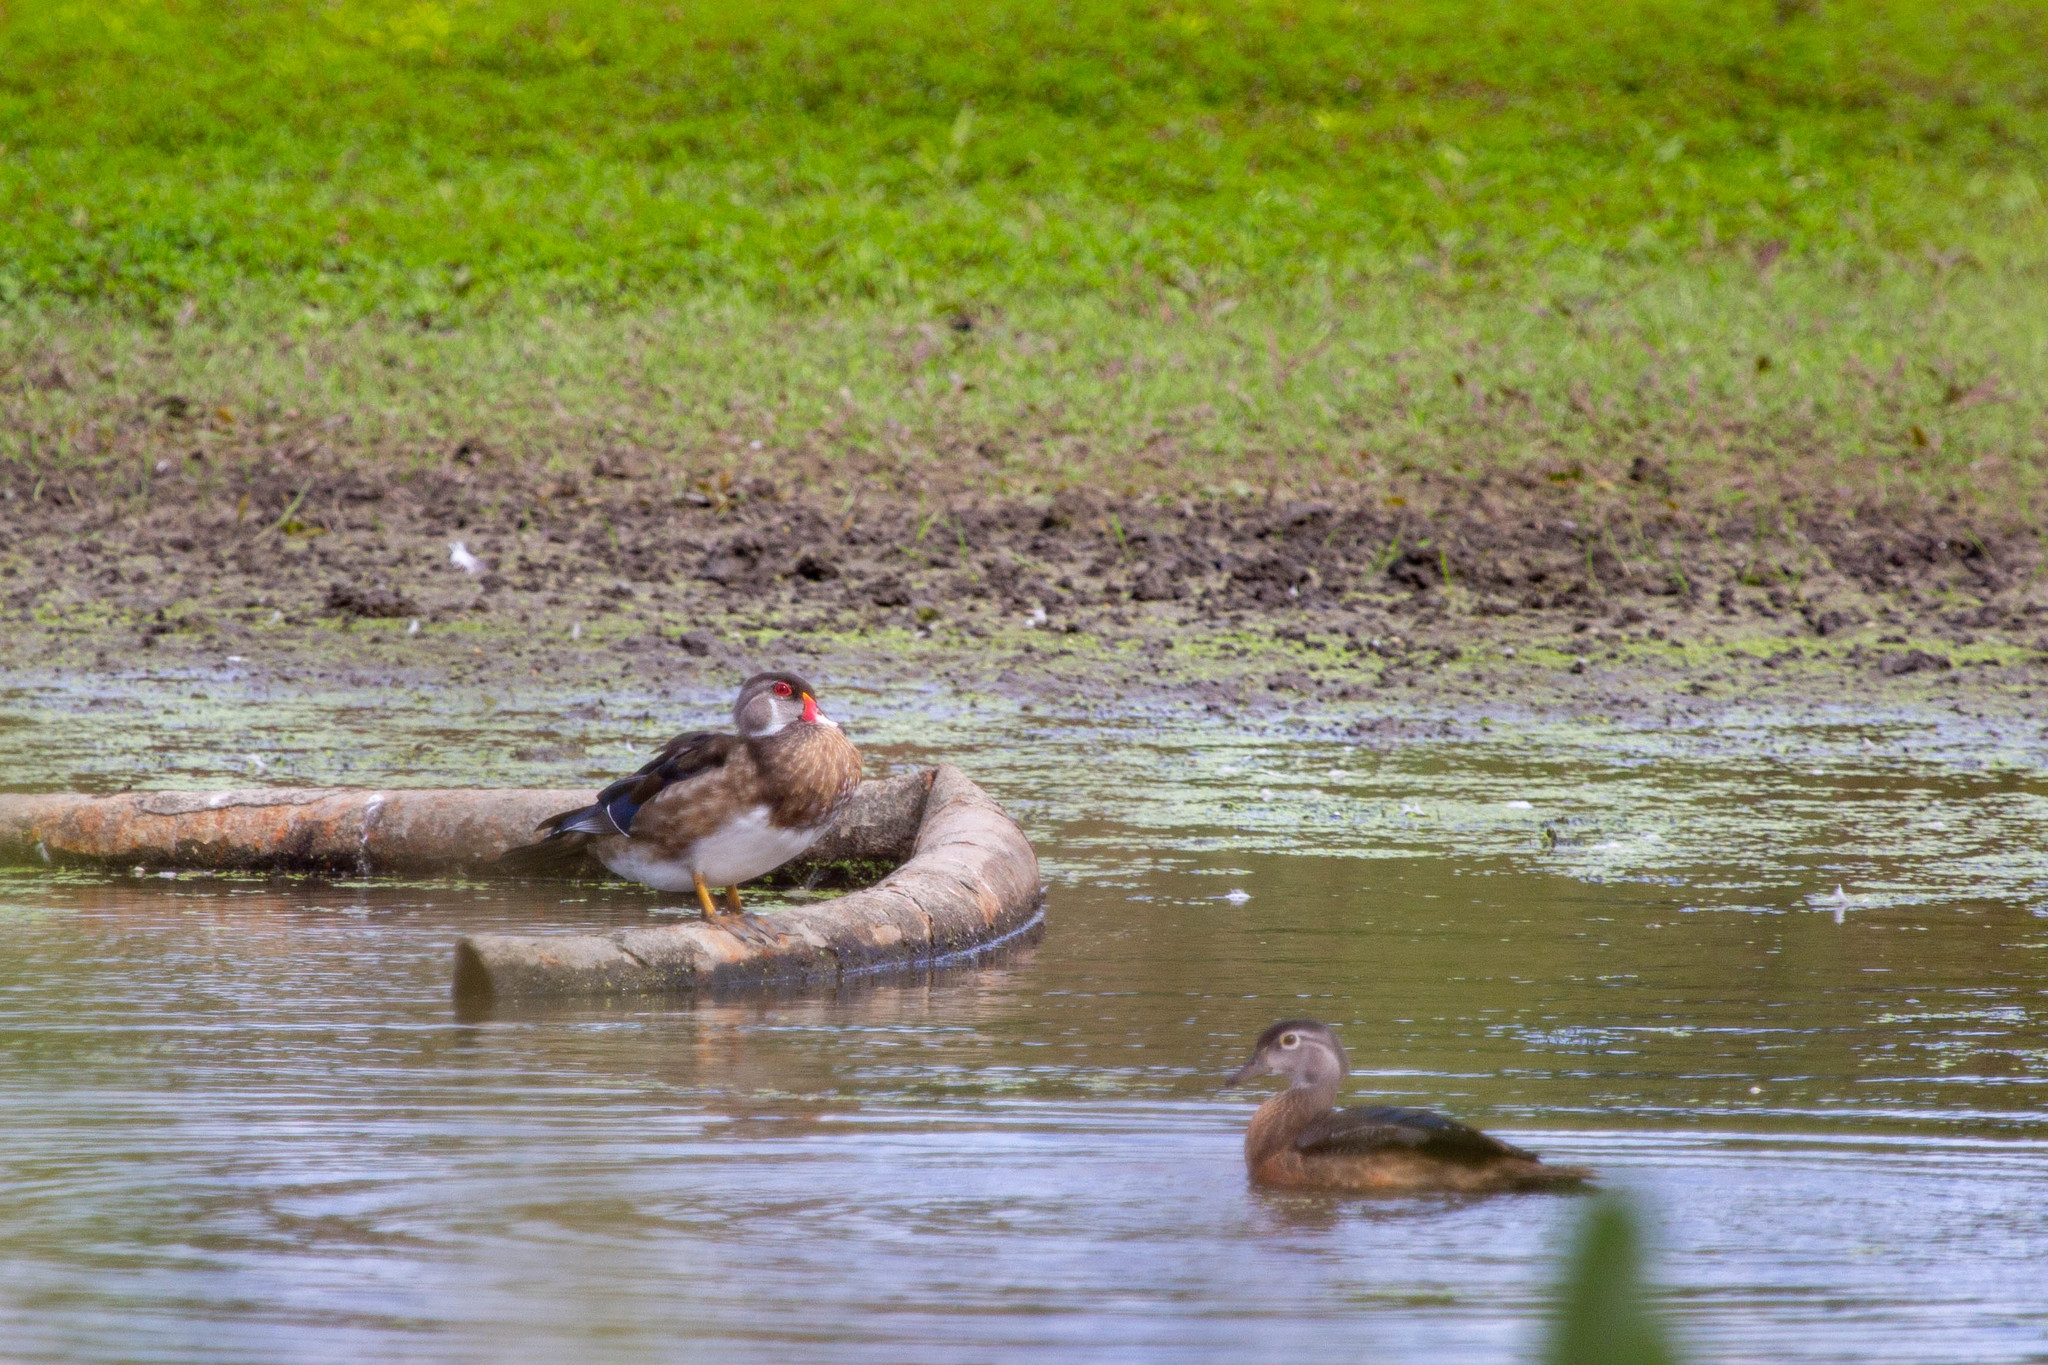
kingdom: Animalia
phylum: Chordata
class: Aves
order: Anseriformes
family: Anatidae
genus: Aix
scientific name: Aix sponsa
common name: Wood duck
